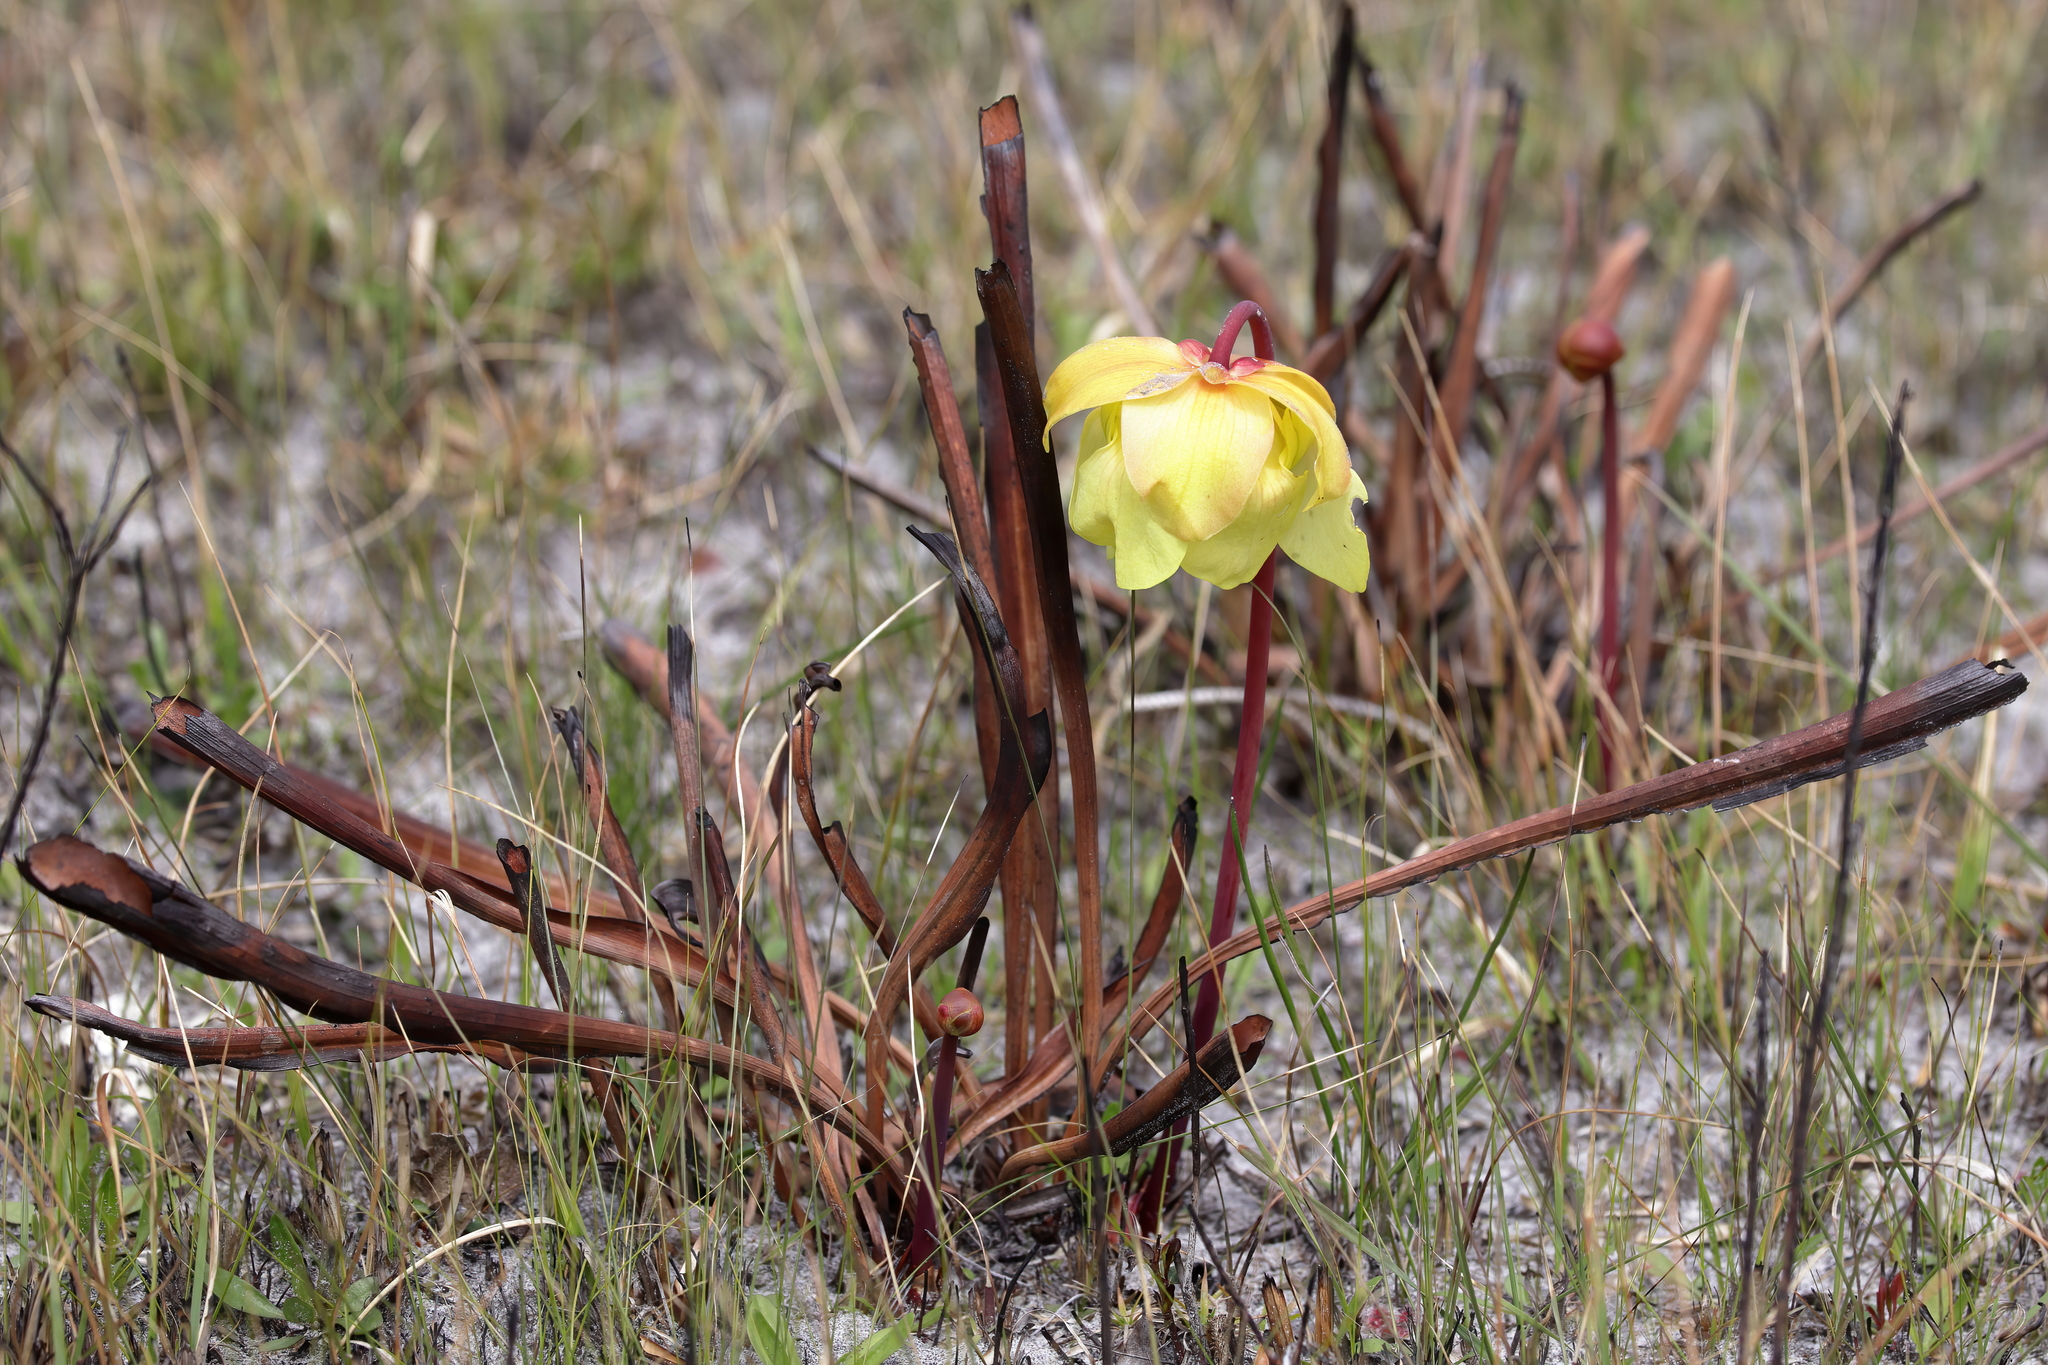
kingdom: Plantae
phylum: Tracheophyta
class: Magnoliopsida
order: Ericales
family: Sarraceniaceae
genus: Sarracenia
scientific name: Sarracenia alata
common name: Yellow trumpets
